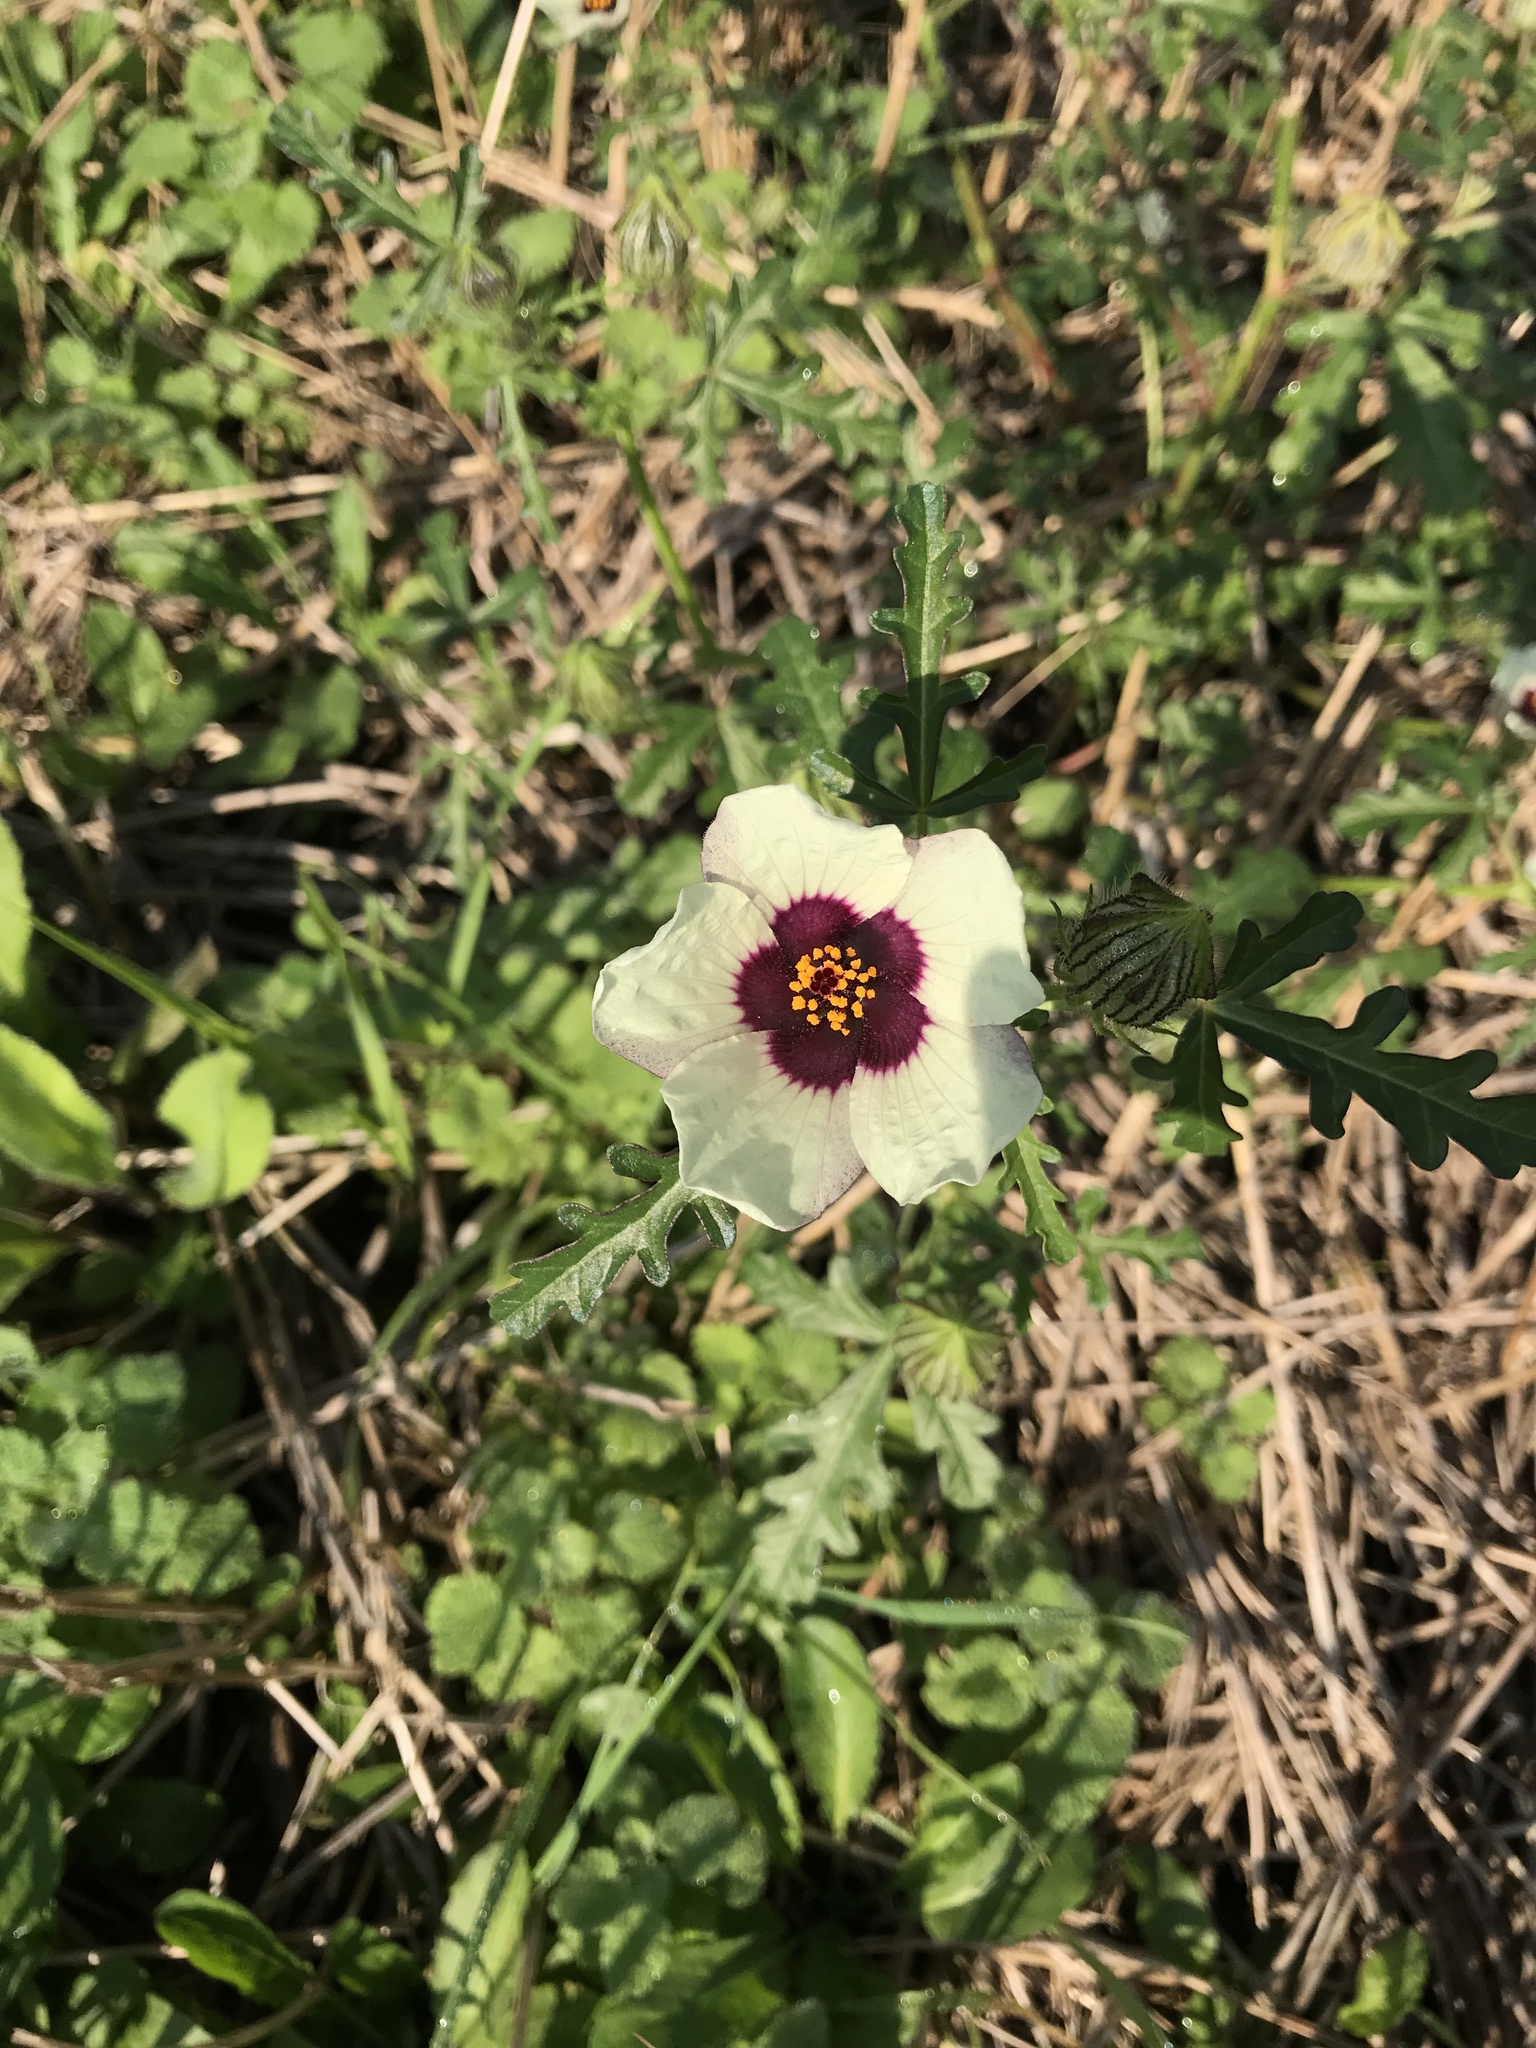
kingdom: Plantae
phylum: Tracheophyta
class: Magnoliopsida
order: Malvales
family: Malvaceae
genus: Hibiscus
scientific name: Hibiscus trionum
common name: Bladder ketmia
